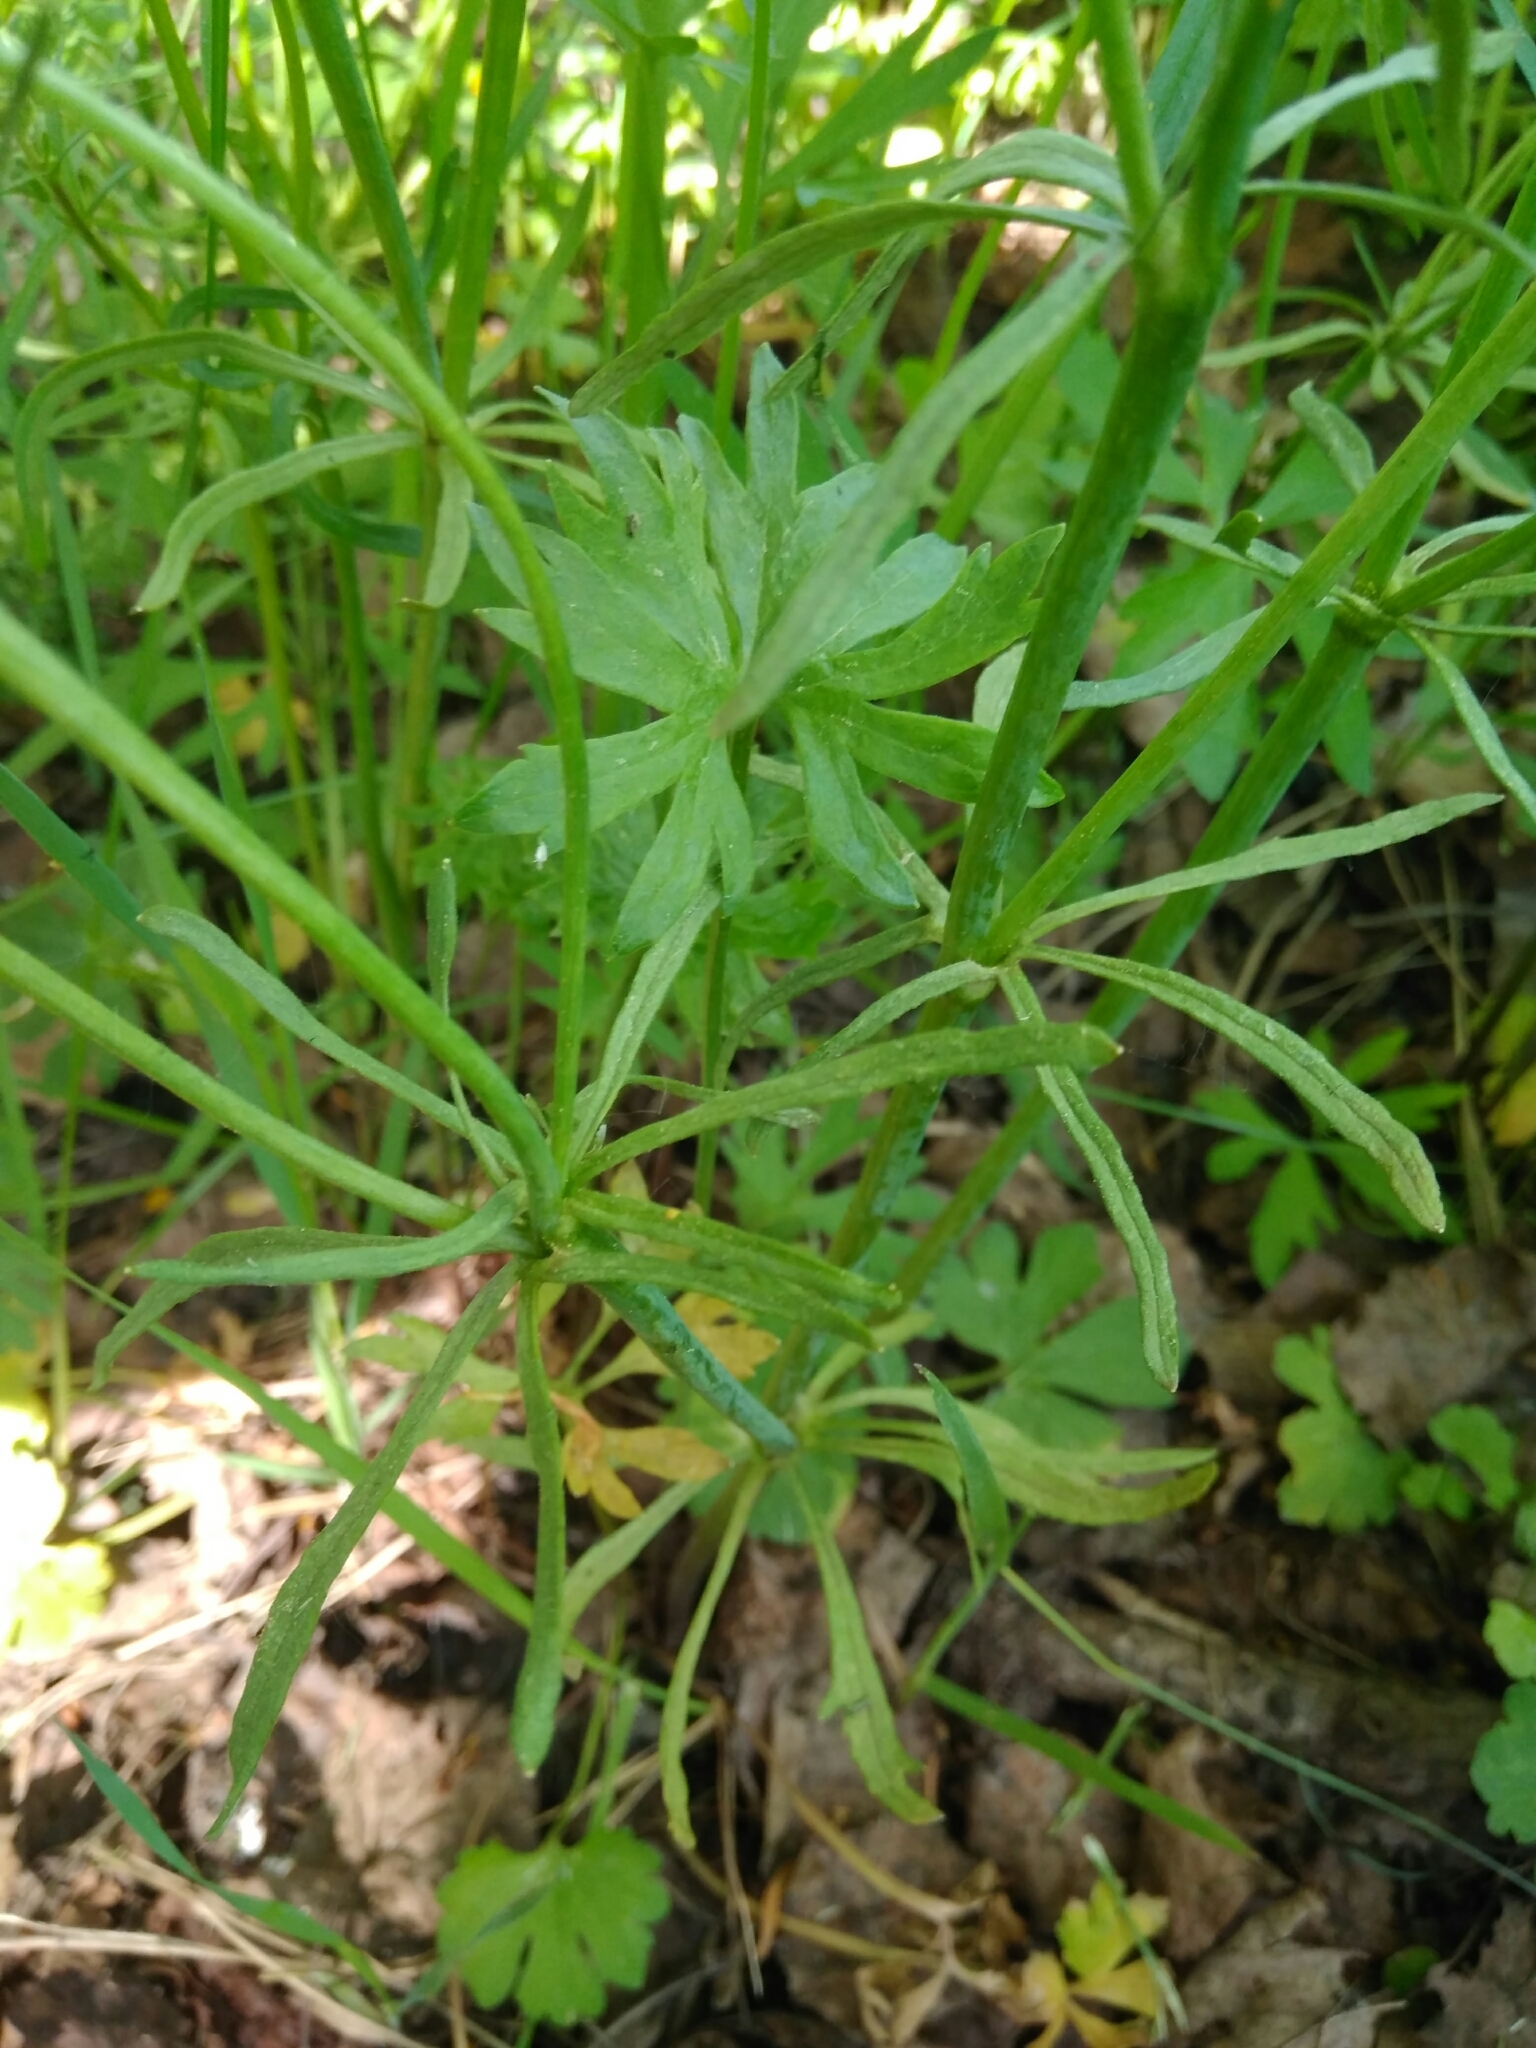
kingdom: Plantae
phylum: Tracheophyta
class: Magnoliopsida
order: Ranunculales
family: Ranunculaceae
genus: Ranunculus
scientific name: Ranunculus auricomus
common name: Goldilocks buttercup
